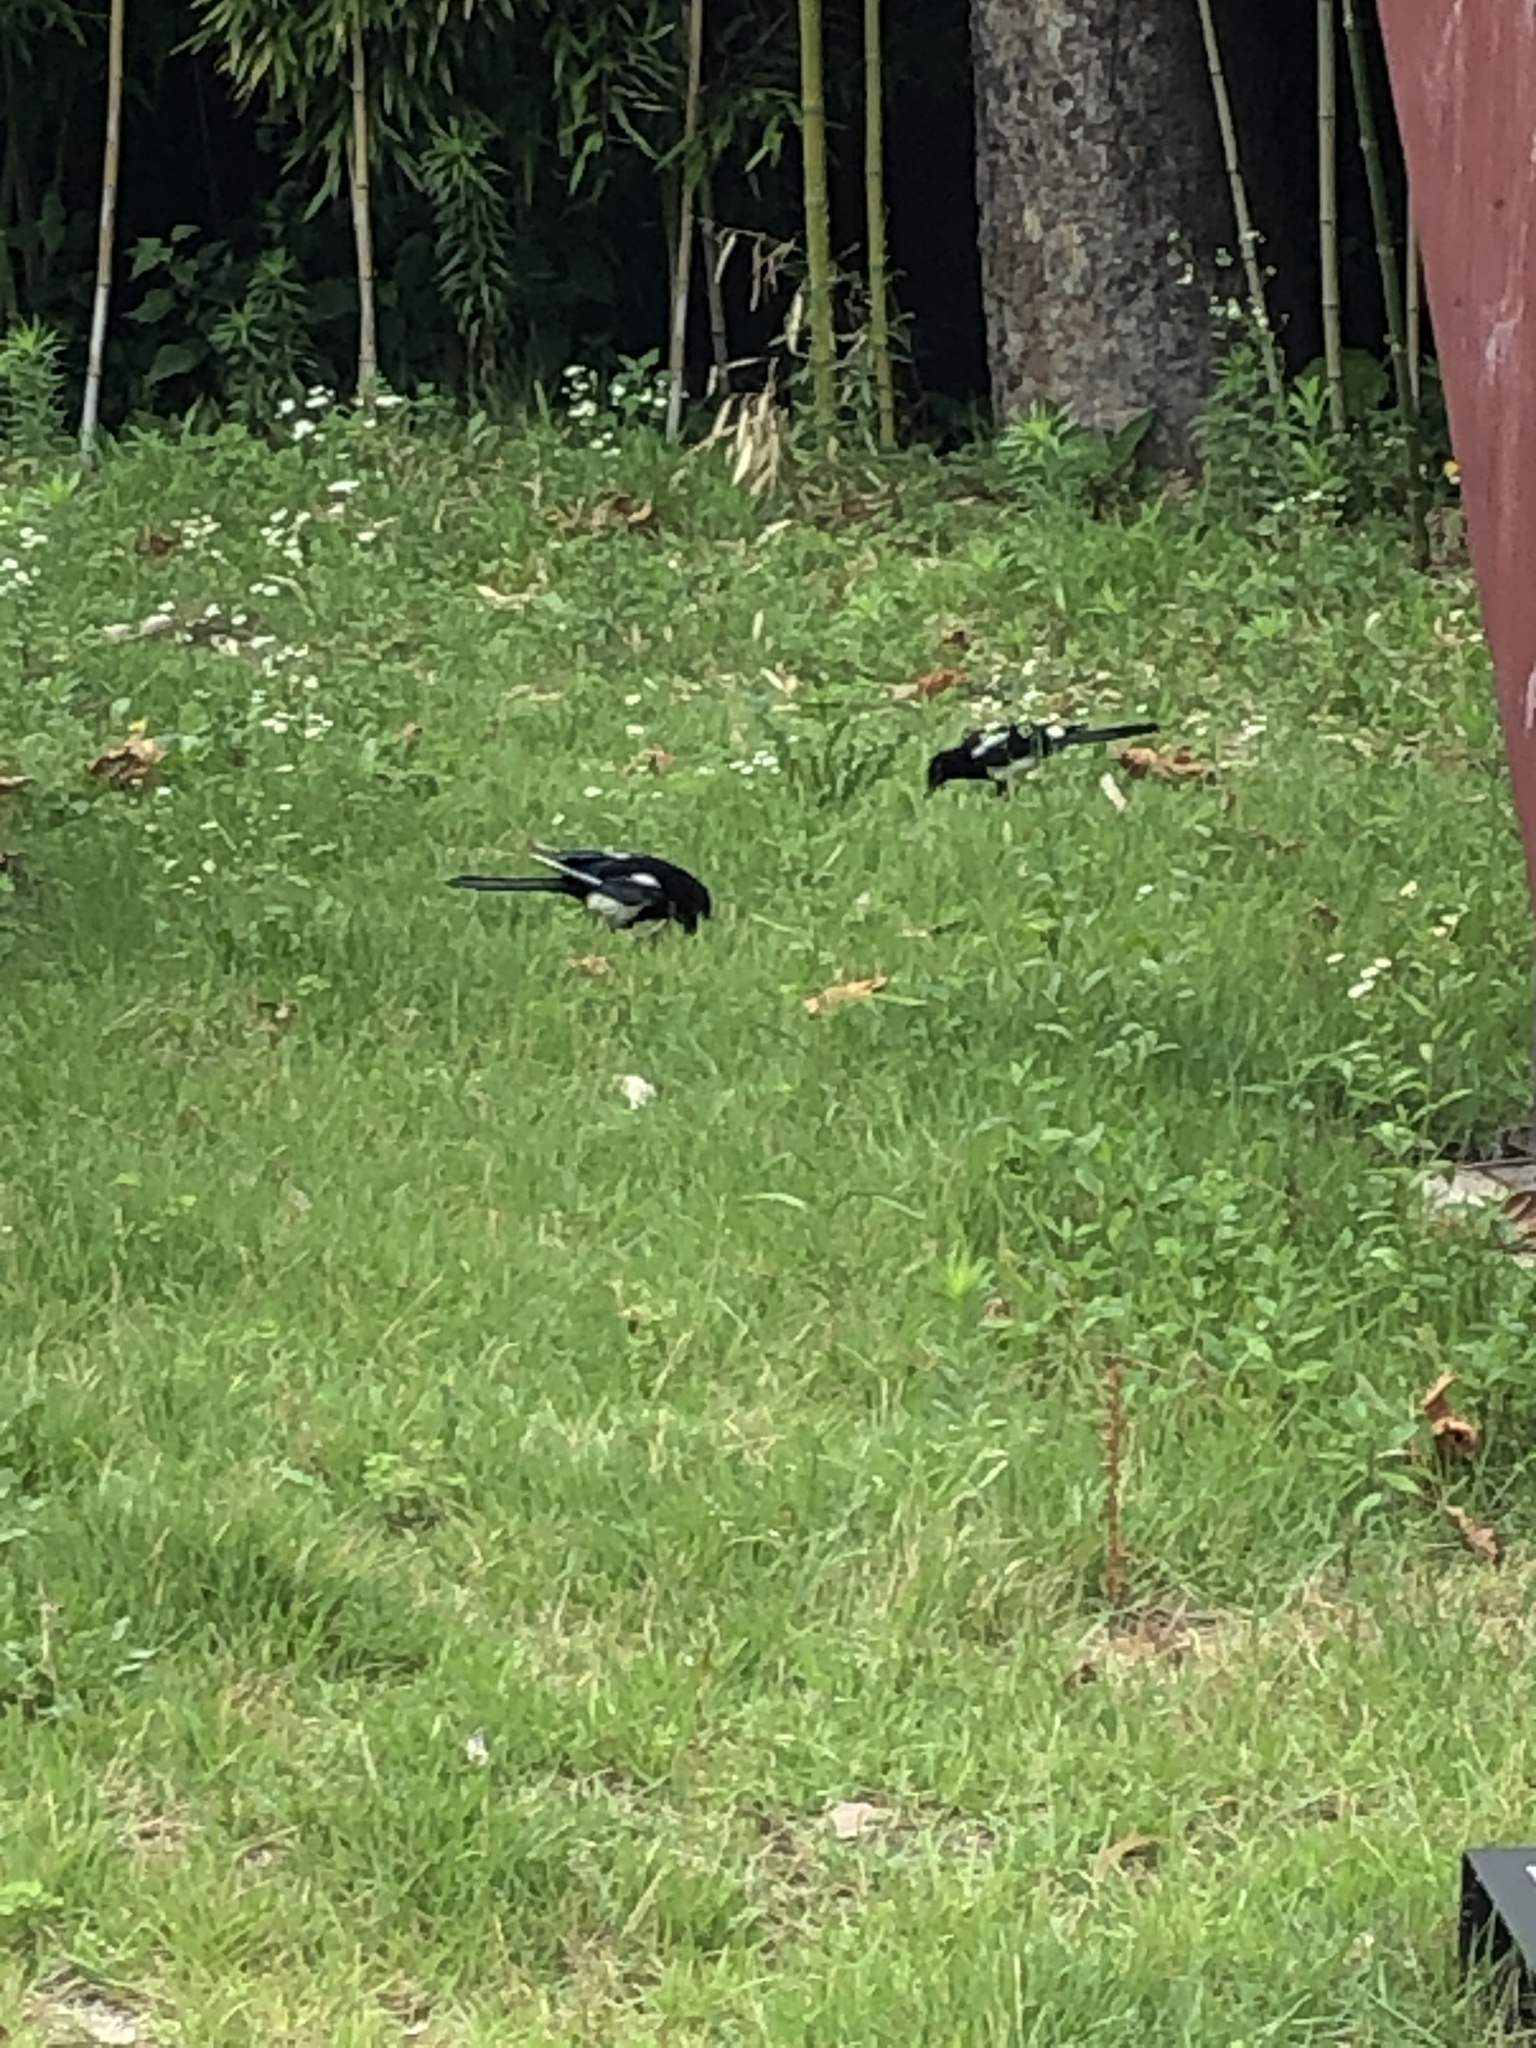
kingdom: Animalia
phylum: Chordata
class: Aves
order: Passeriformes
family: Corvidae
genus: Pica
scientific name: Pica serica
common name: Oriental magpie
